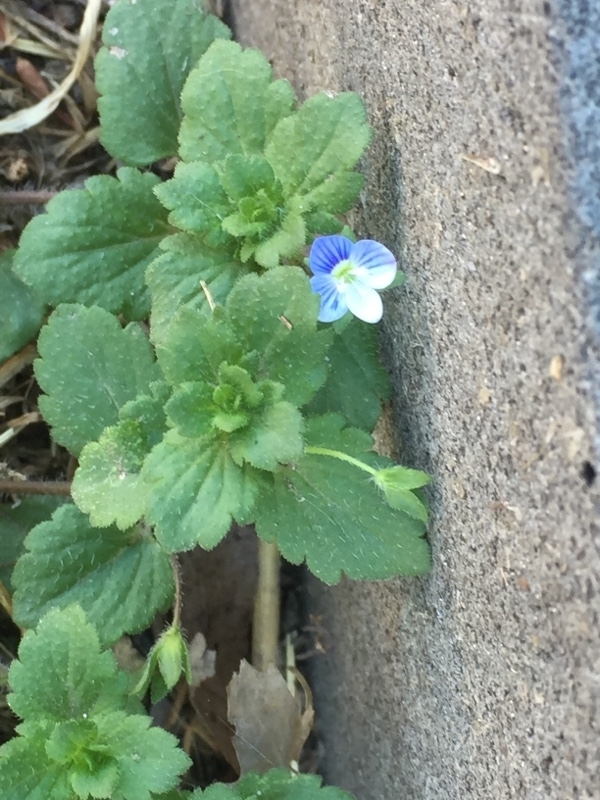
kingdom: Plantae
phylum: Tracheophyta
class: Magnoliopsida
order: Lamiales
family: Plantaginaceae
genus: Veronica
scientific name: Veronica persica
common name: Common field-speedwell
